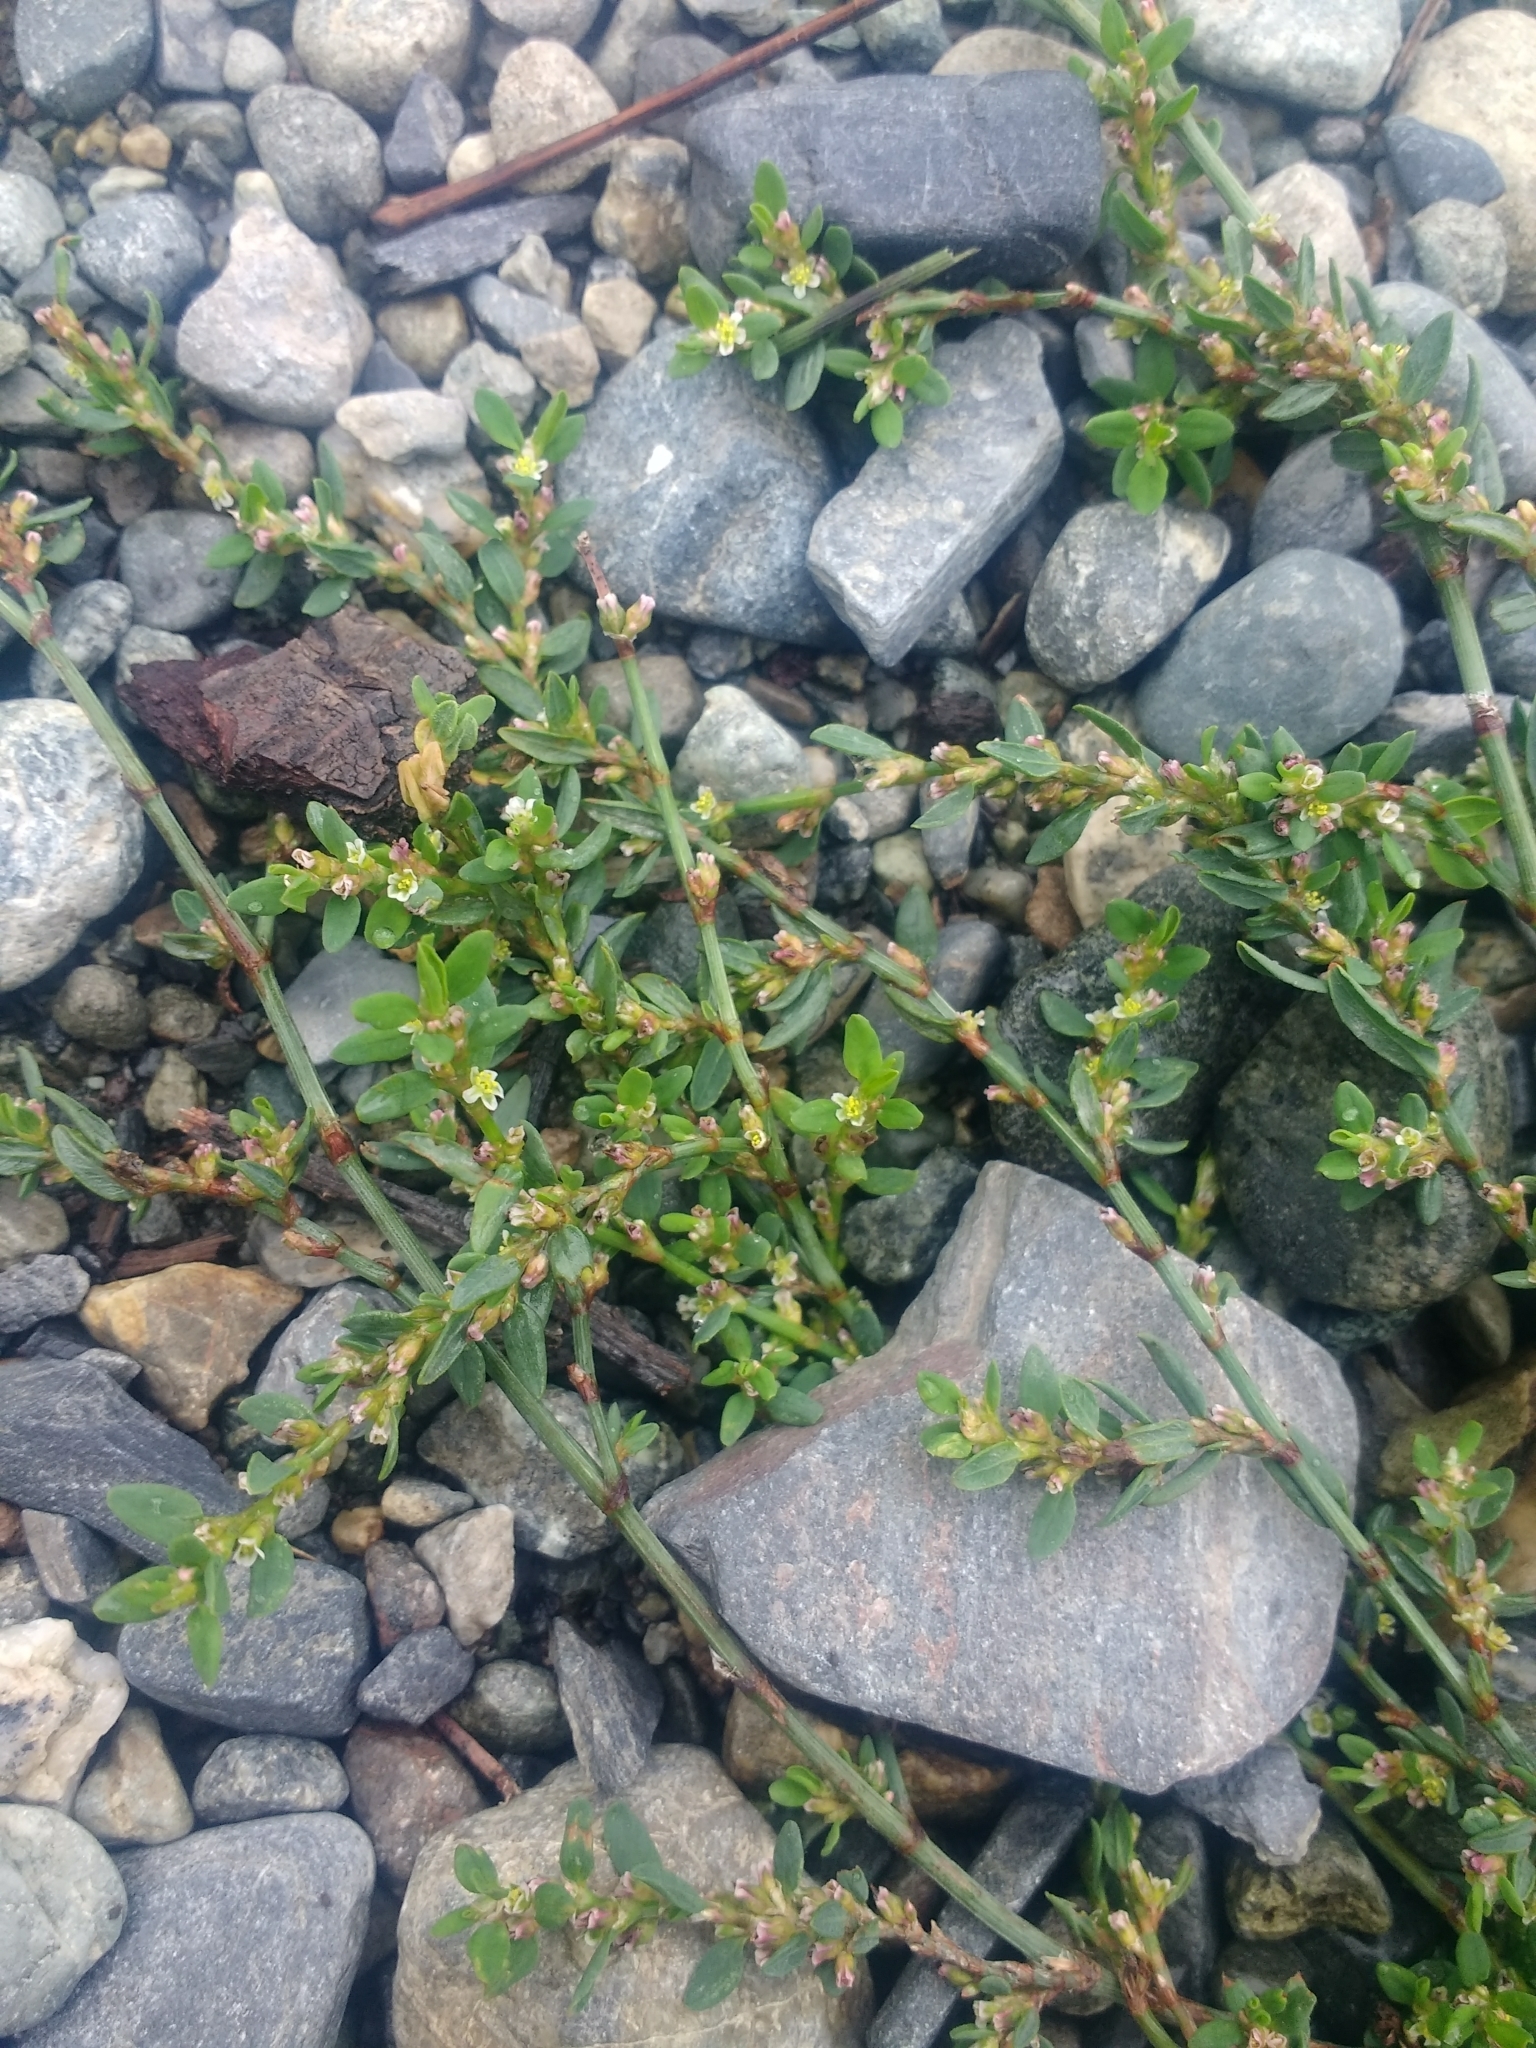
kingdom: Plantae
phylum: Tracheophyta
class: Magnoliopsida
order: Caryophyllales
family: Polygonaceae
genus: Polygonum
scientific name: Polygonum aviculare
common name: Prostrate knotweed
